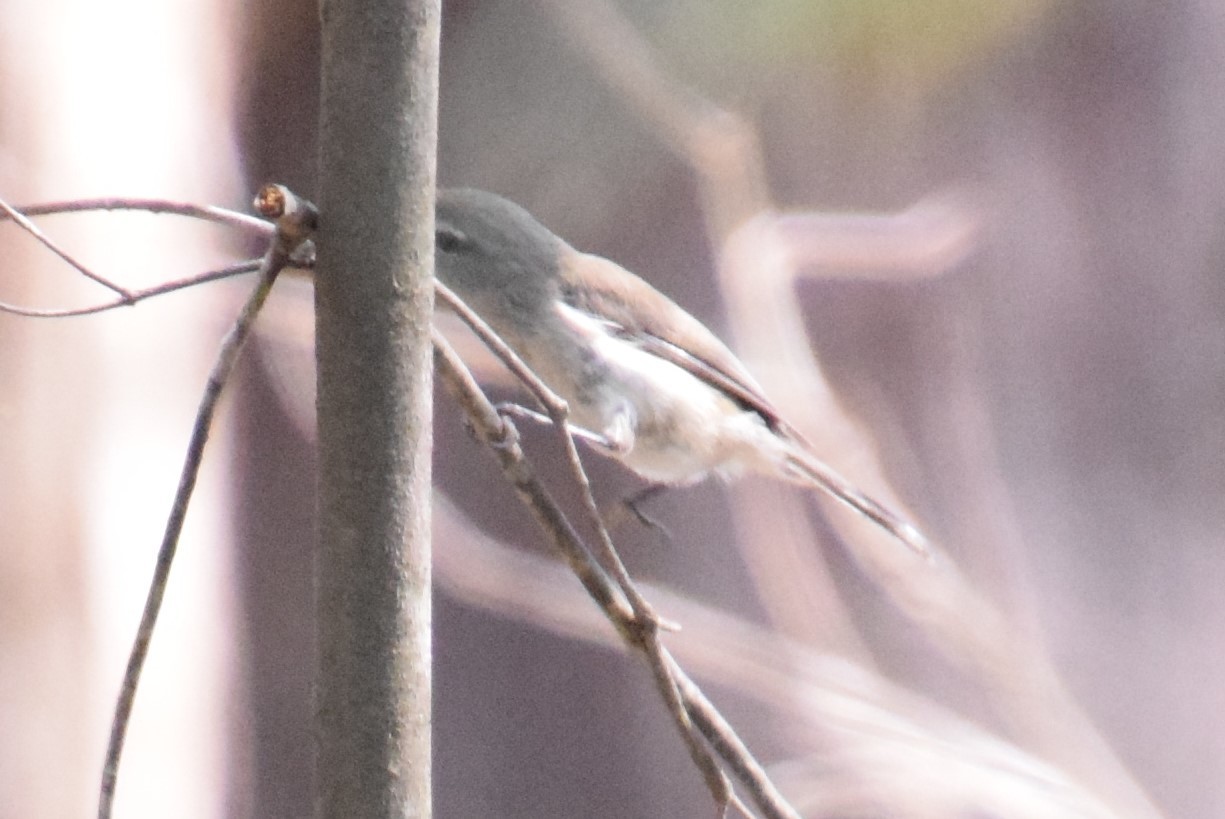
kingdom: Animalia
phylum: Chordata
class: Aves
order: Passeriformes
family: Acanthizidae
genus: Gerygone
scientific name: Gerygone levigaster
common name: Mangrove gerygone
